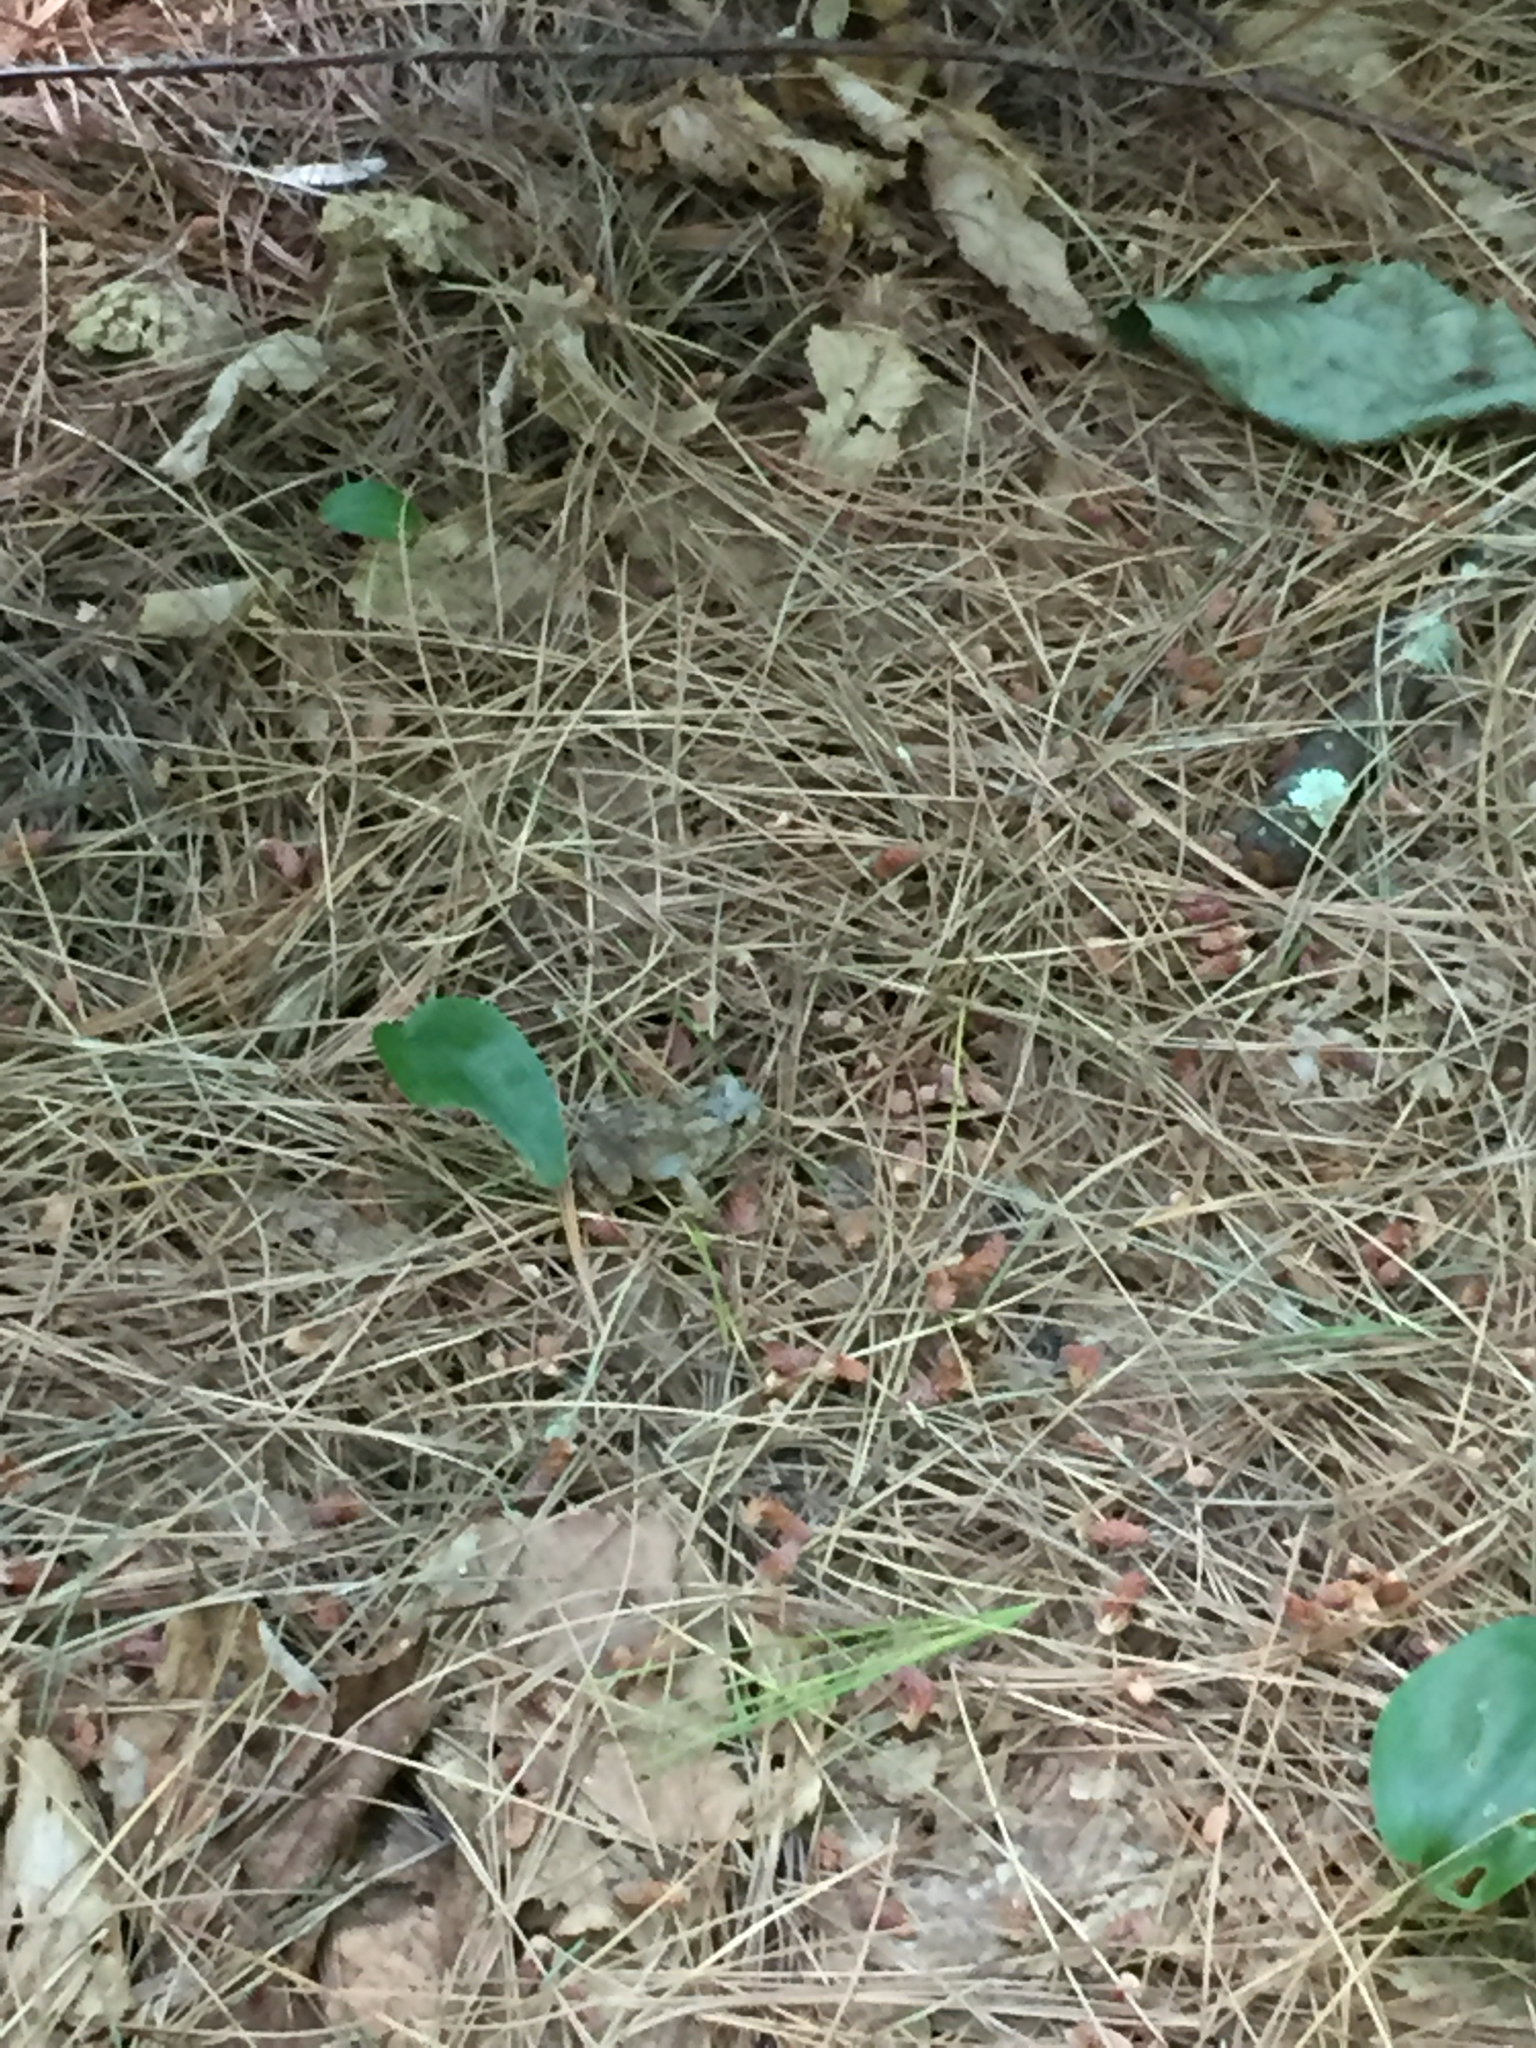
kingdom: Plantae
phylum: Tracheophyta
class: Liliopsida
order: Asparagales
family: Asparagaceae
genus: Maianthemum
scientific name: Maianthemum canadense
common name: False lily-of-the-valley
